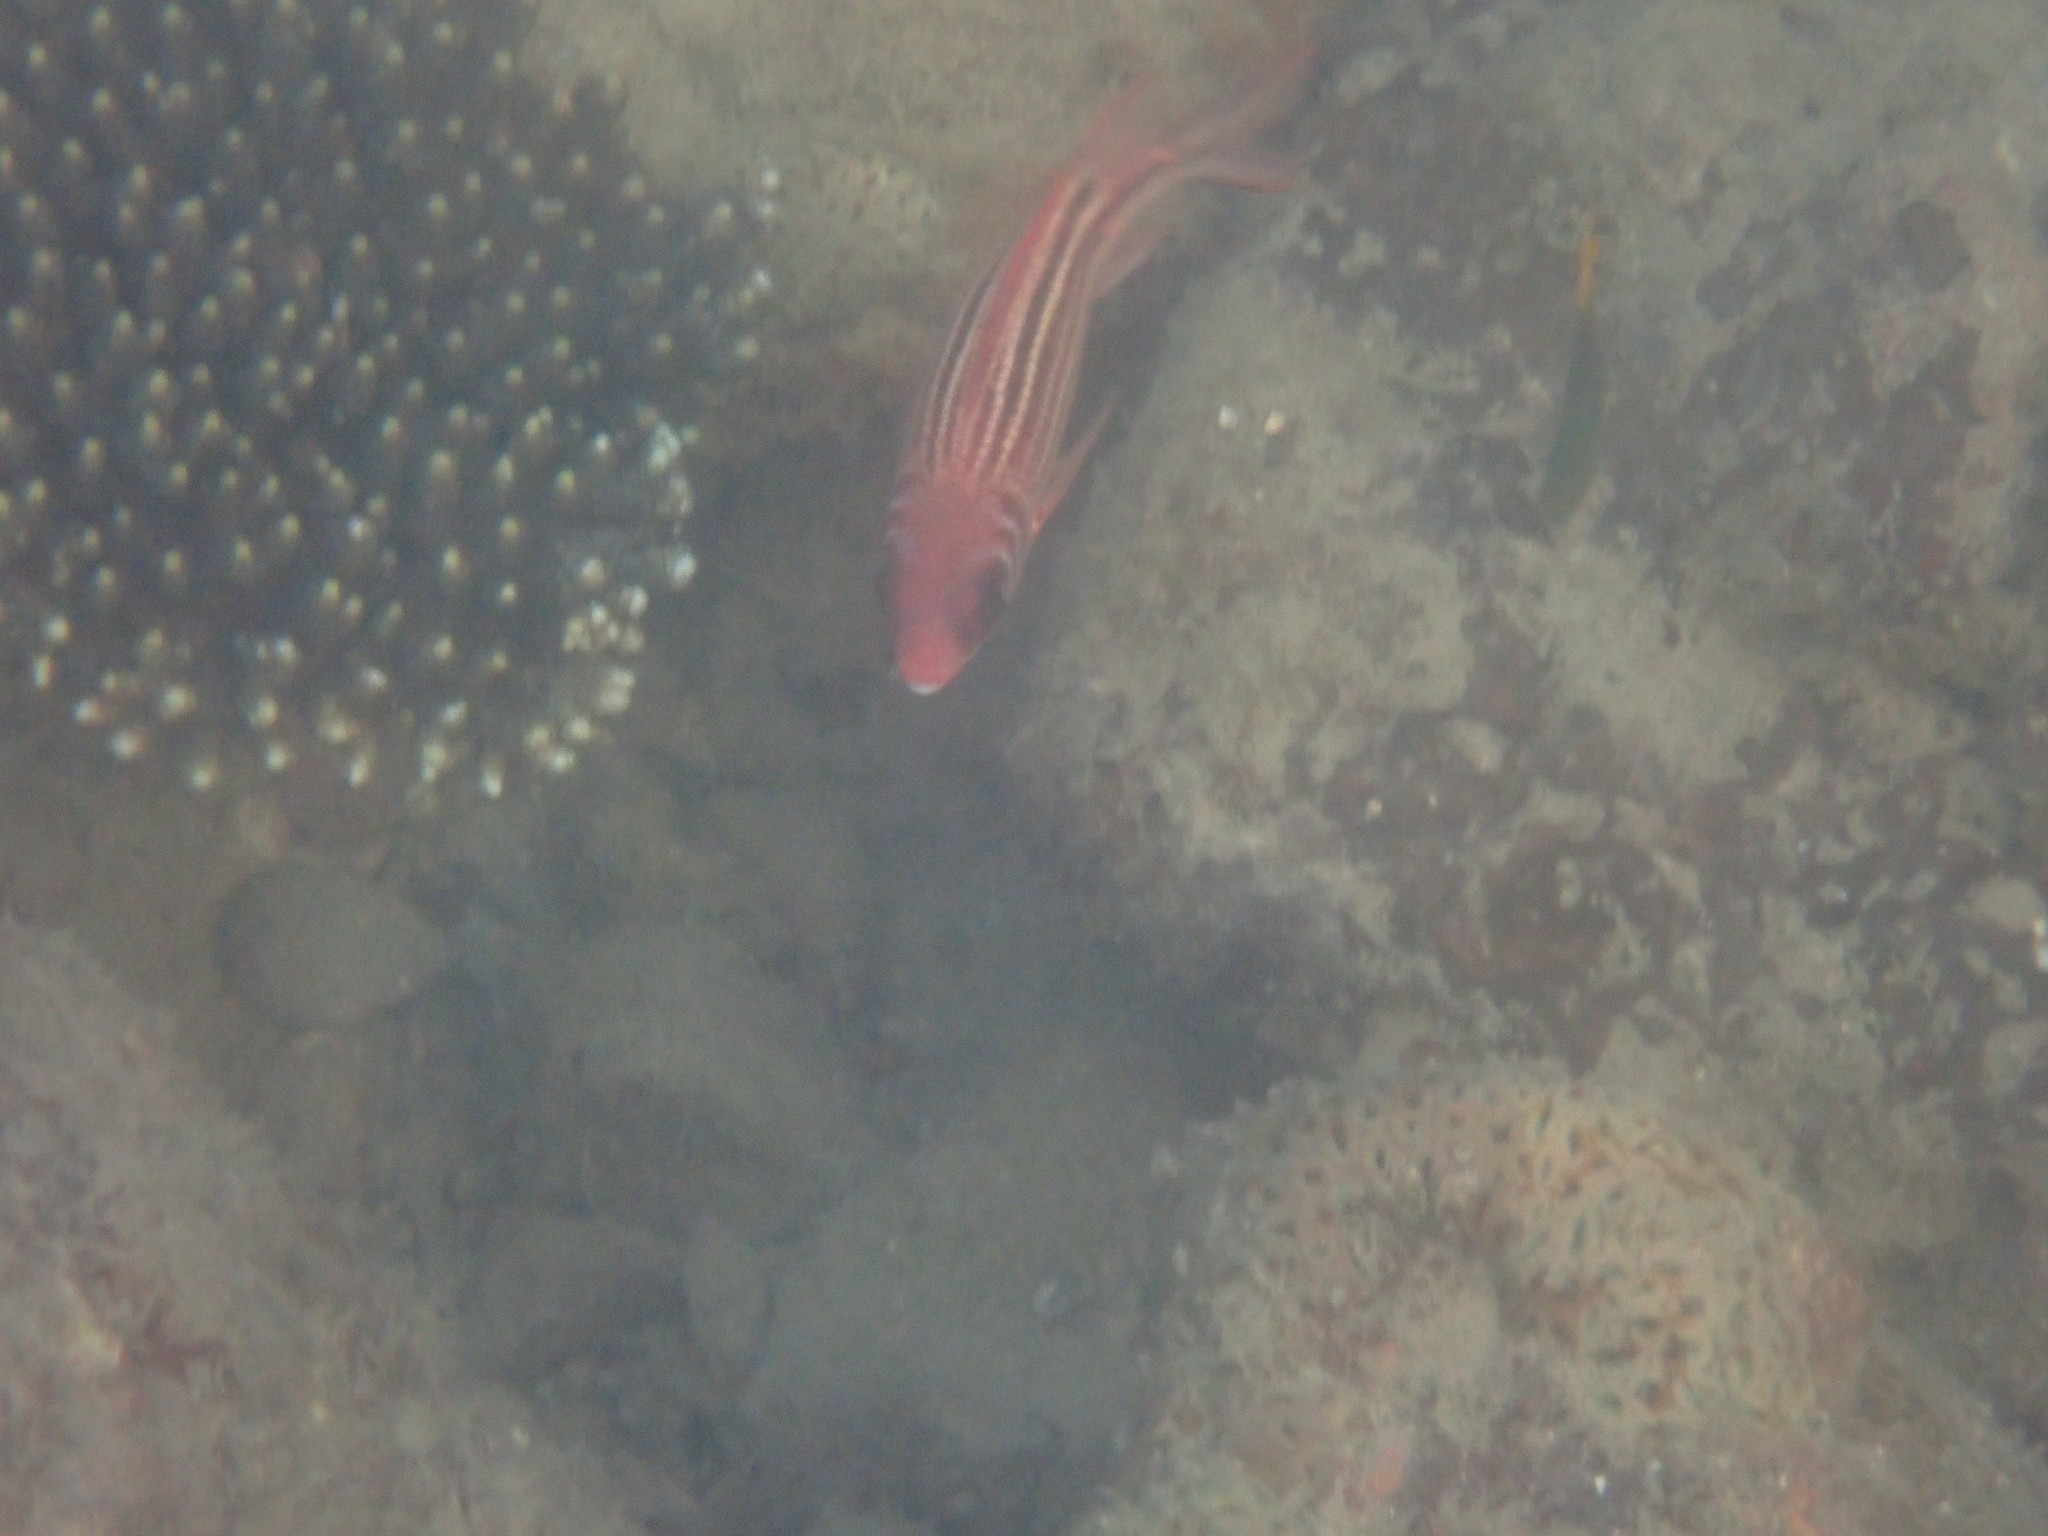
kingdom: Animalia
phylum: Chordata
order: Beryciformes
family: Holocentridae
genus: Sargocentron
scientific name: Sargocentron rubrum
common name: Redcoat
